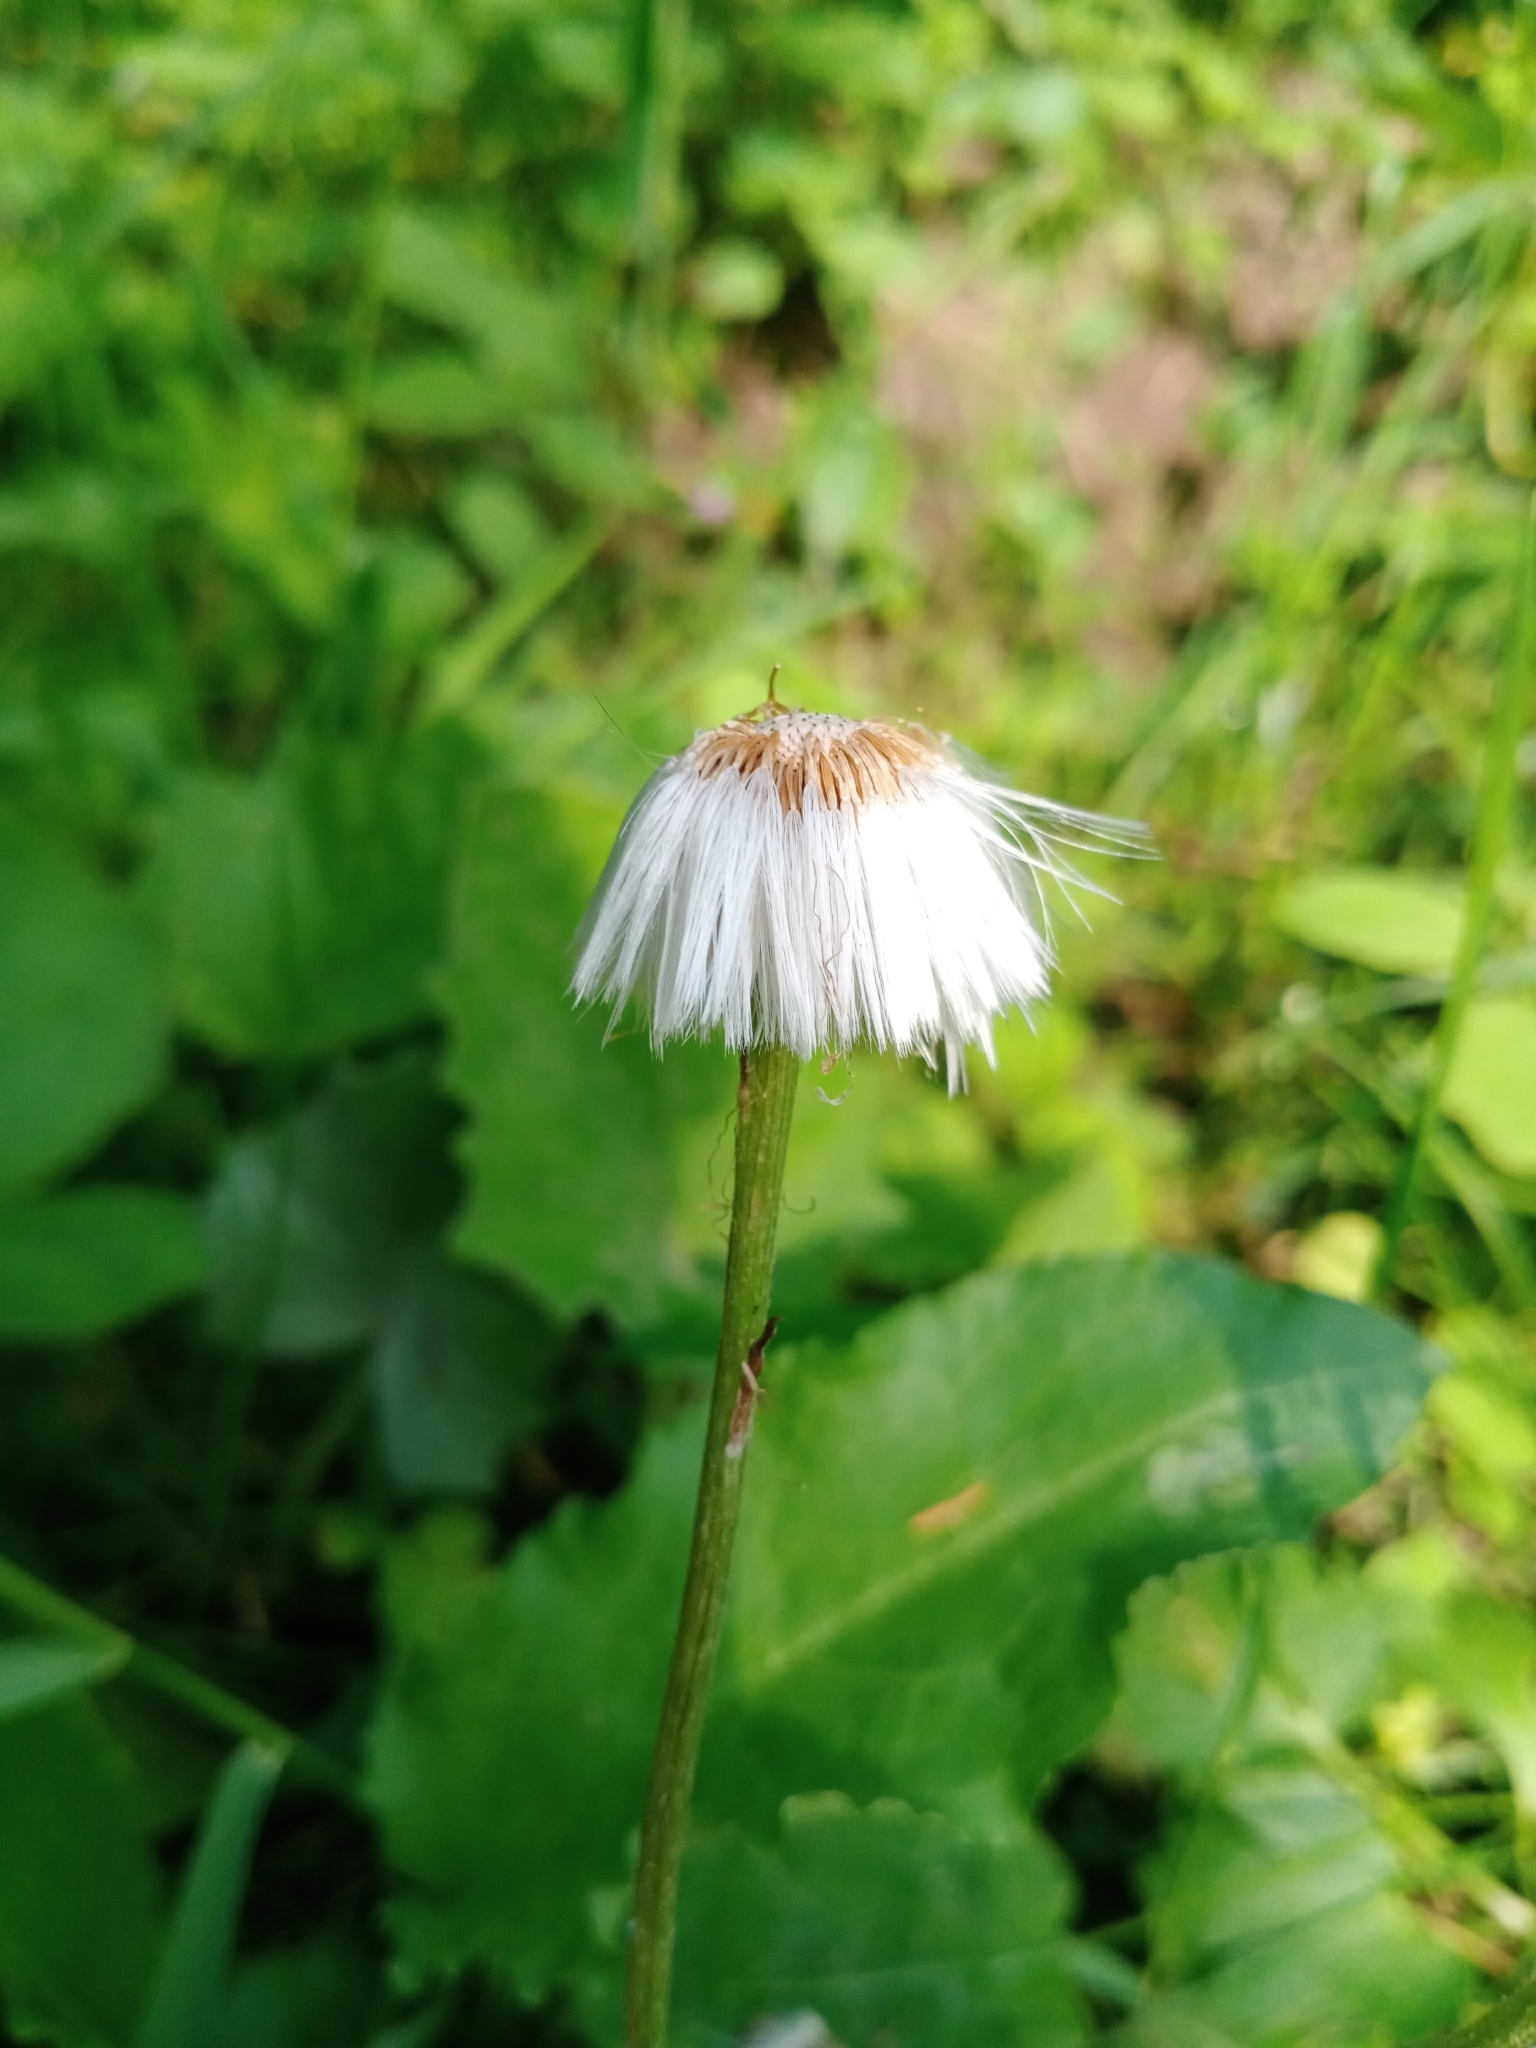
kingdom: Plantae
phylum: Tracheophyta
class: Magnoliopsida
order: Asterales
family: Asteraceae
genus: Tussilago
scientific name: Tussilago farfara
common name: Coltsfoot
